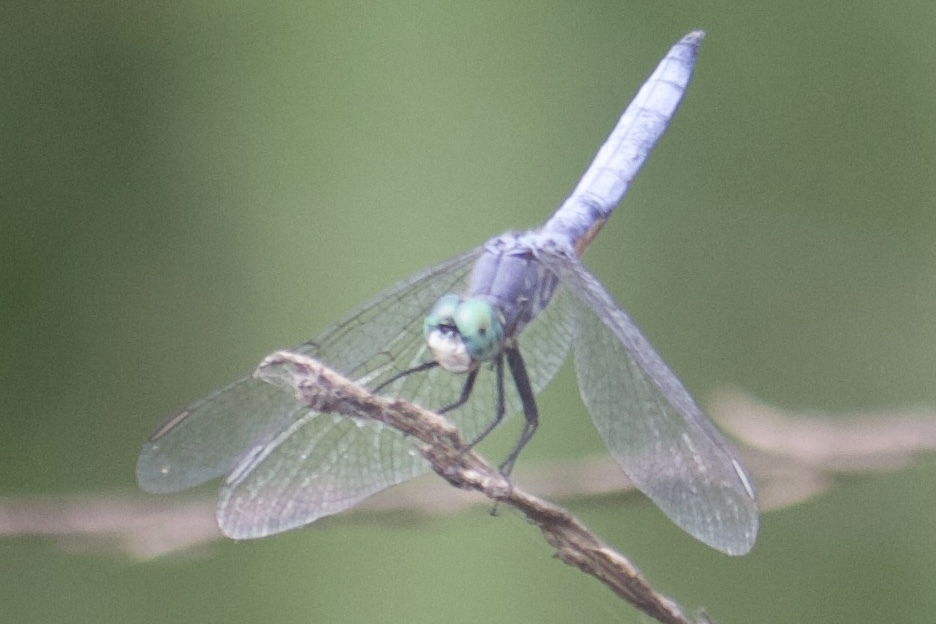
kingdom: Animalia
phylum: Arthropoda
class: Insecta
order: Odonata
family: Libellulidae
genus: Pachydiplax
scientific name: Pachydiplax longipennis
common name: Blue dasher
